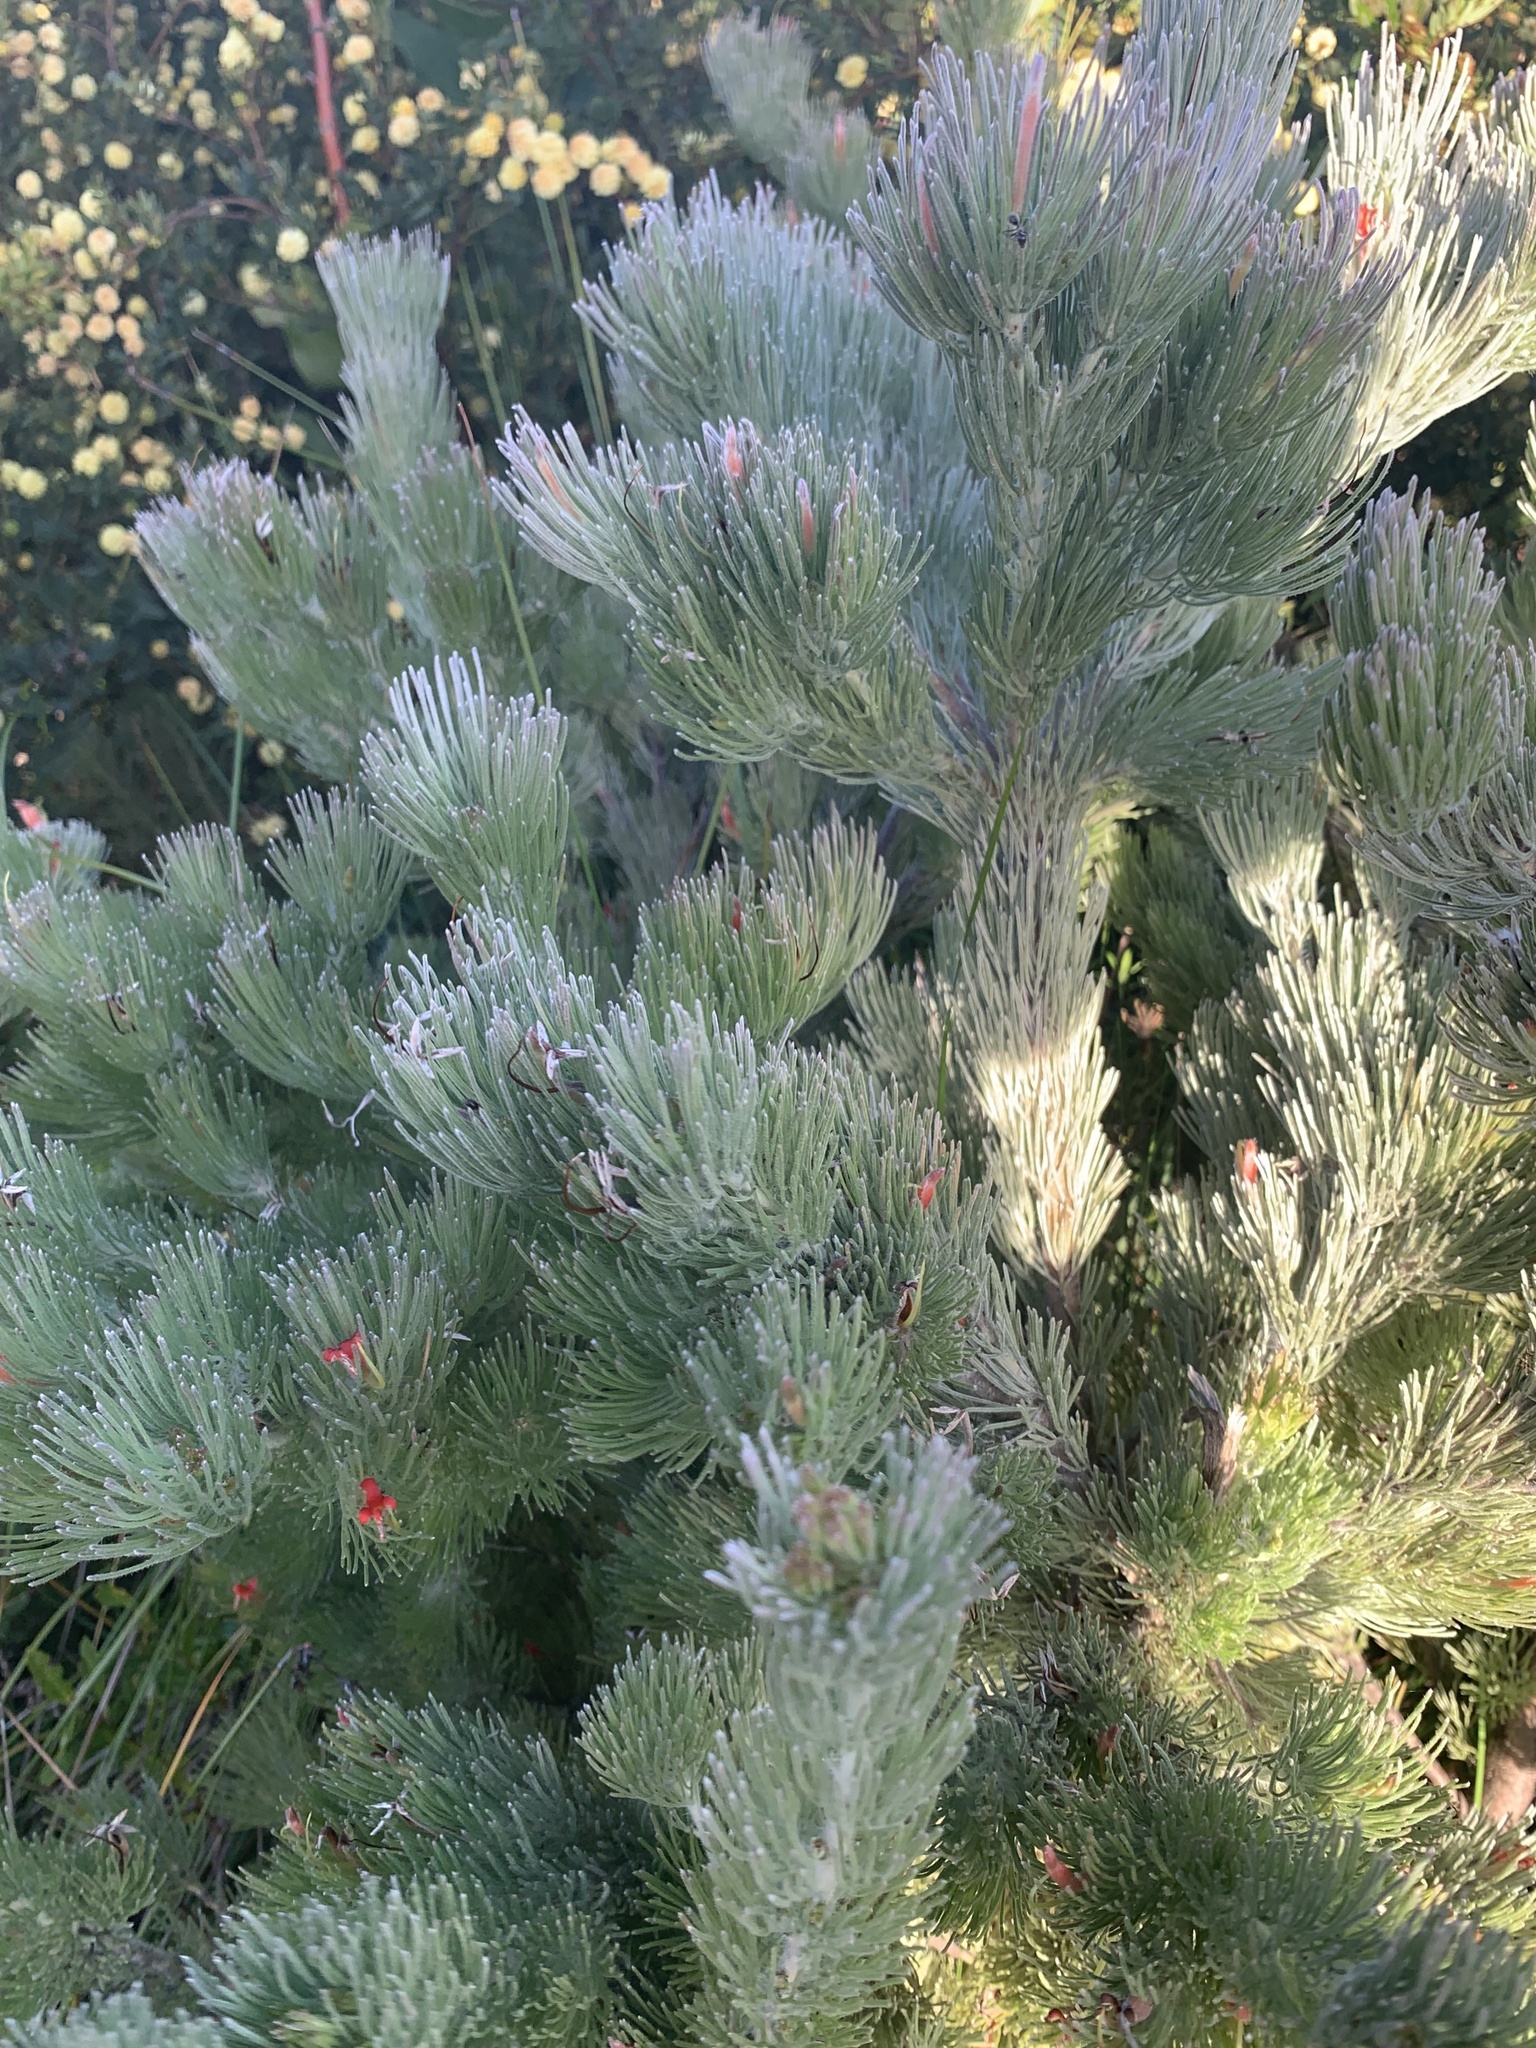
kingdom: Plantae
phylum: Tracheophyta
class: Magnoliopsida
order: Proteales
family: Proteaceae
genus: Adenanthos
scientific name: Adenanthos sericeus
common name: Coastal woollybush
